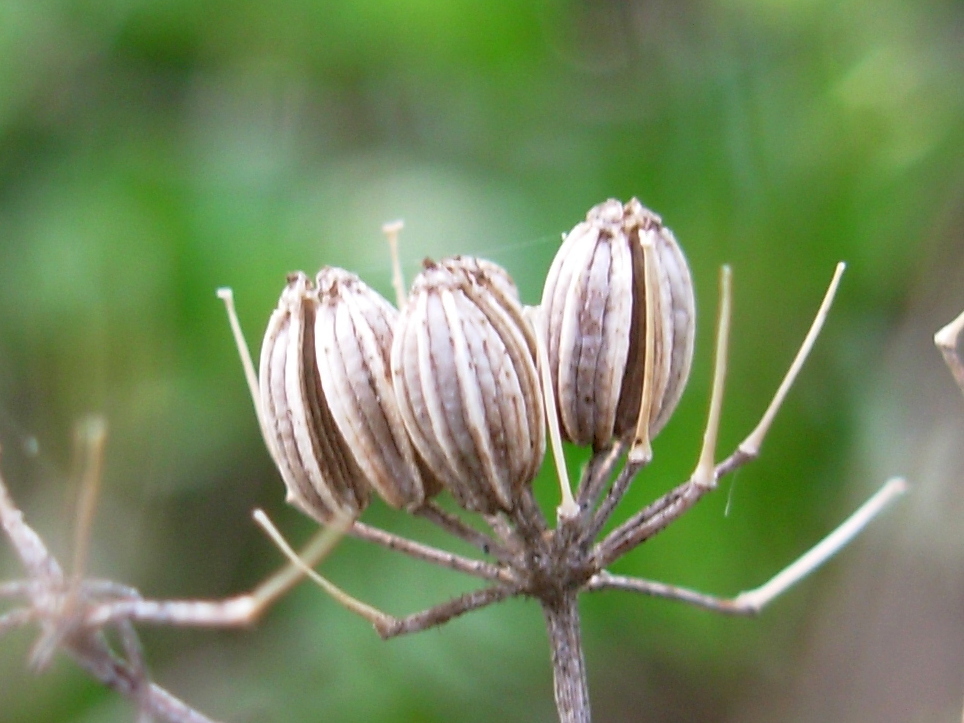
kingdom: Plantae
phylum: Tracheophyta
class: Magnoliopsida
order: Apiales
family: Apiaceae
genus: Foeniculum
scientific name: Foeniculum vulgare
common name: Fennel
